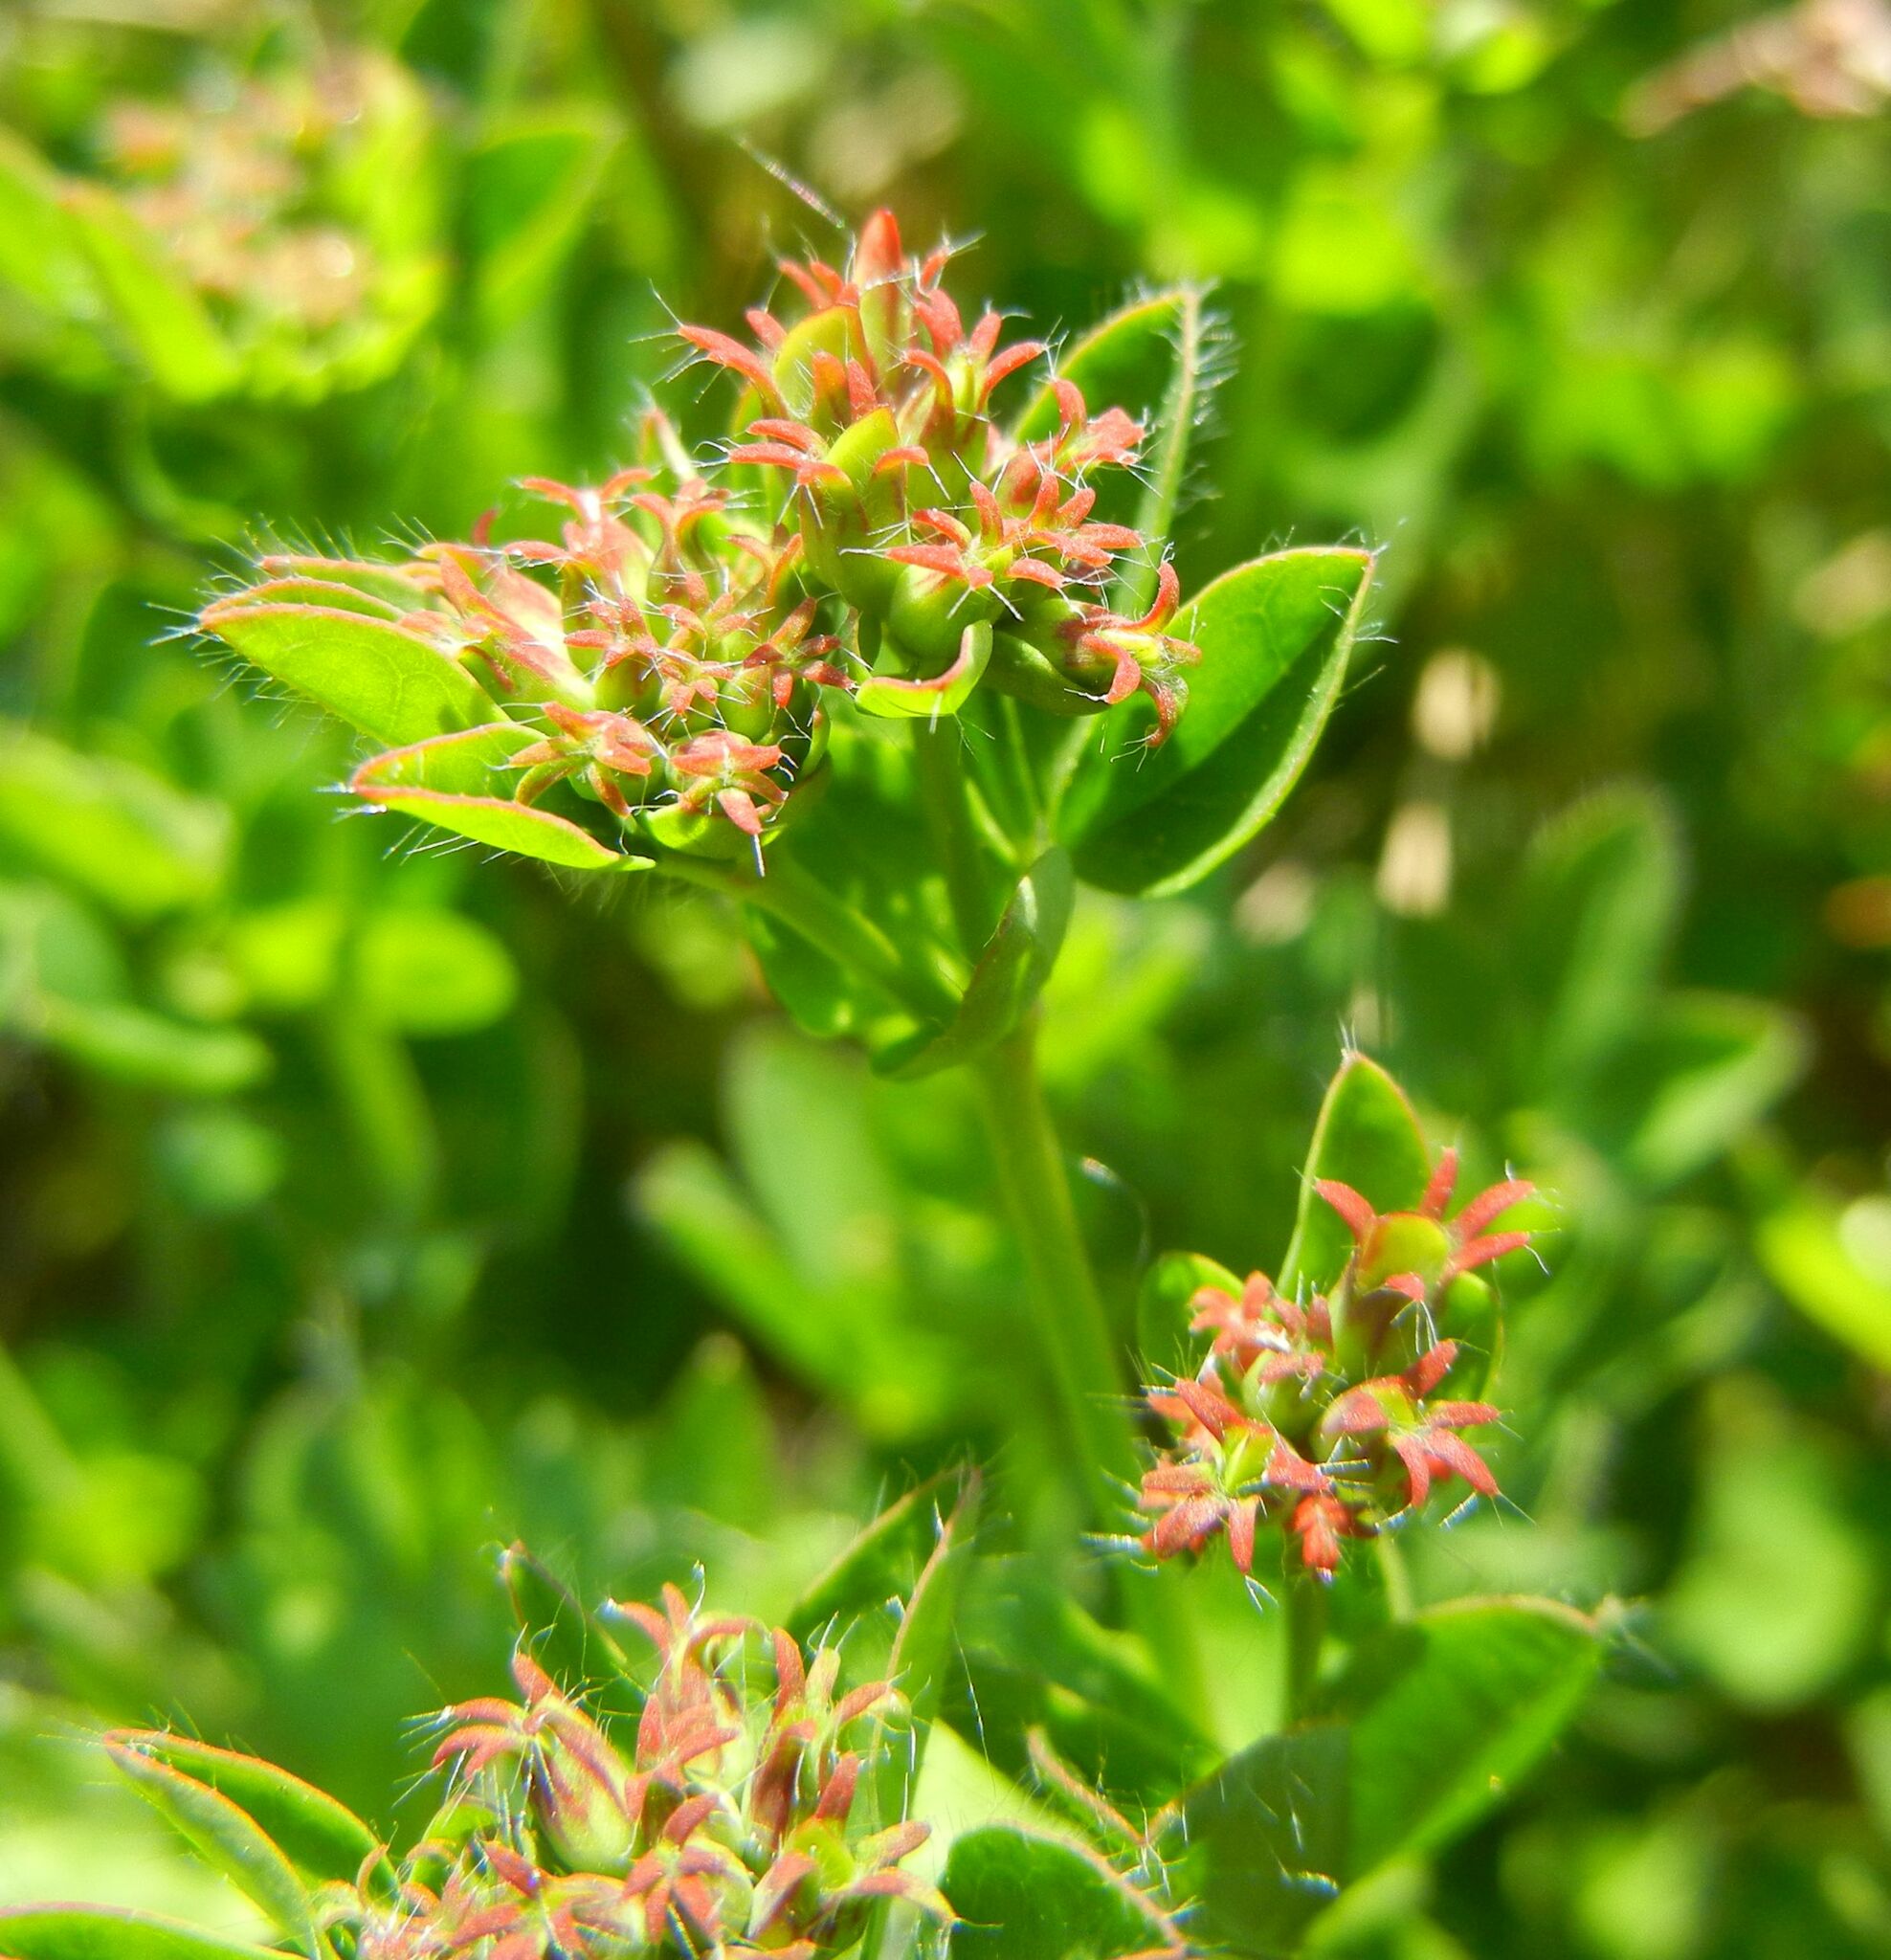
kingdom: Plantae
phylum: Tracheophyta
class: Magnoliopsida
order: Fabales
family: Fabaceae
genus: Lotus
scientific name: Lotus pedunculatus
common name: Greater birdsfoot-trefoil
